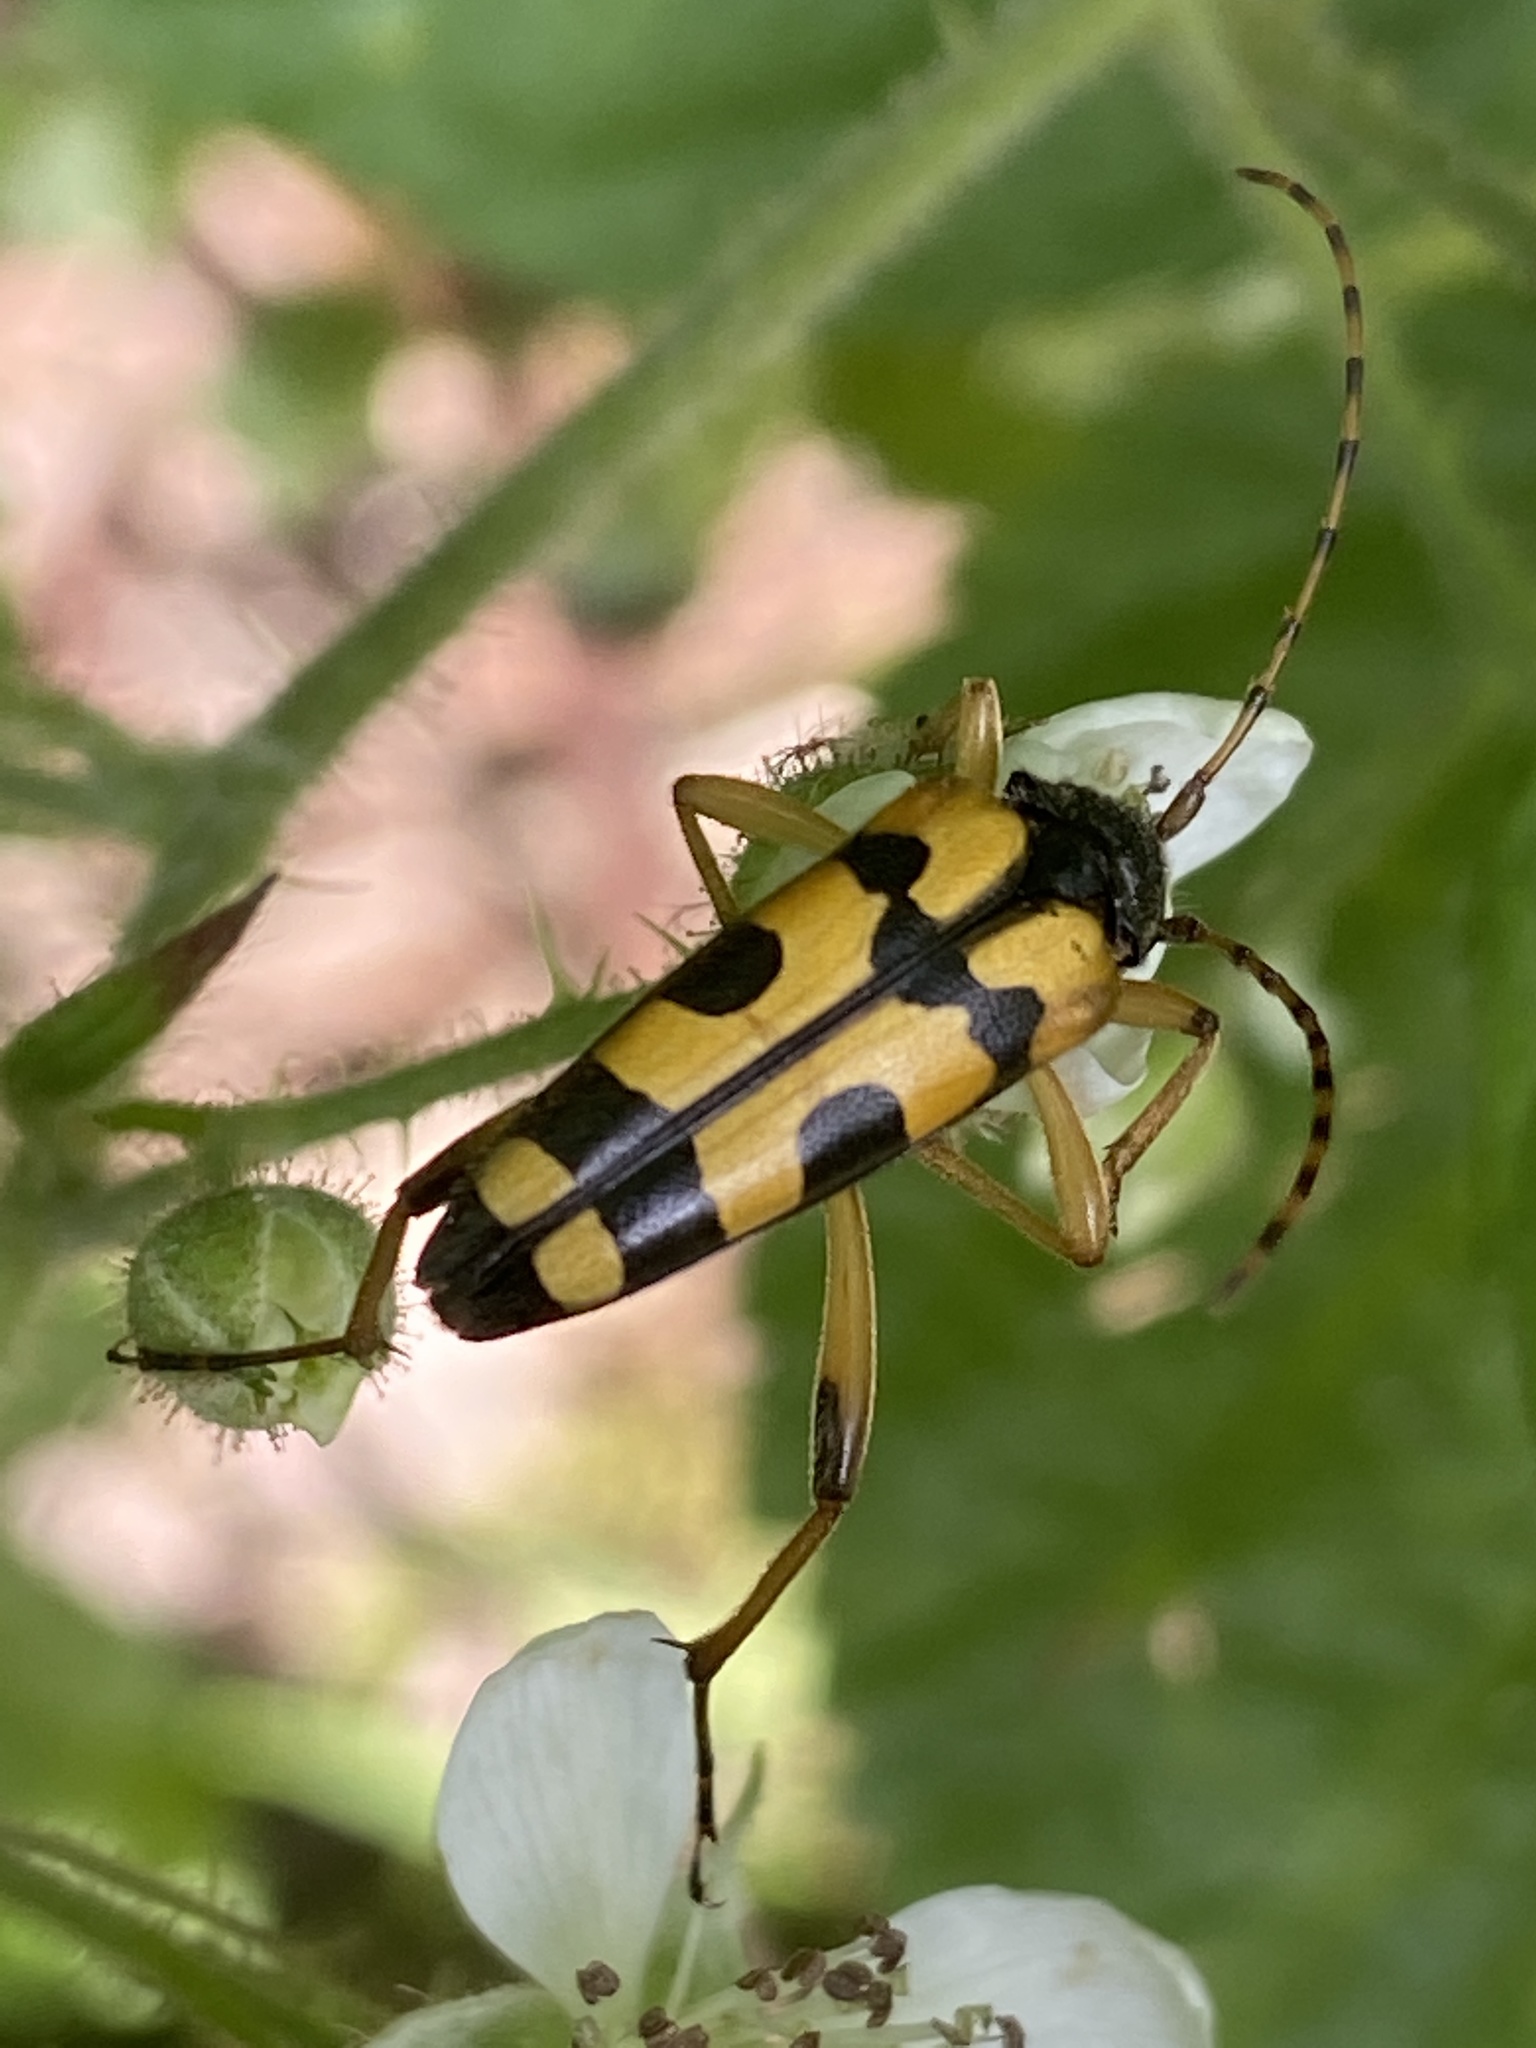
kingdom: Animalia
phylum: Arthropoda
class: Insecta
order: Coleoptera
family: Cerambycidae
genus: Rutpela
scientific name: Rutpela maculata
